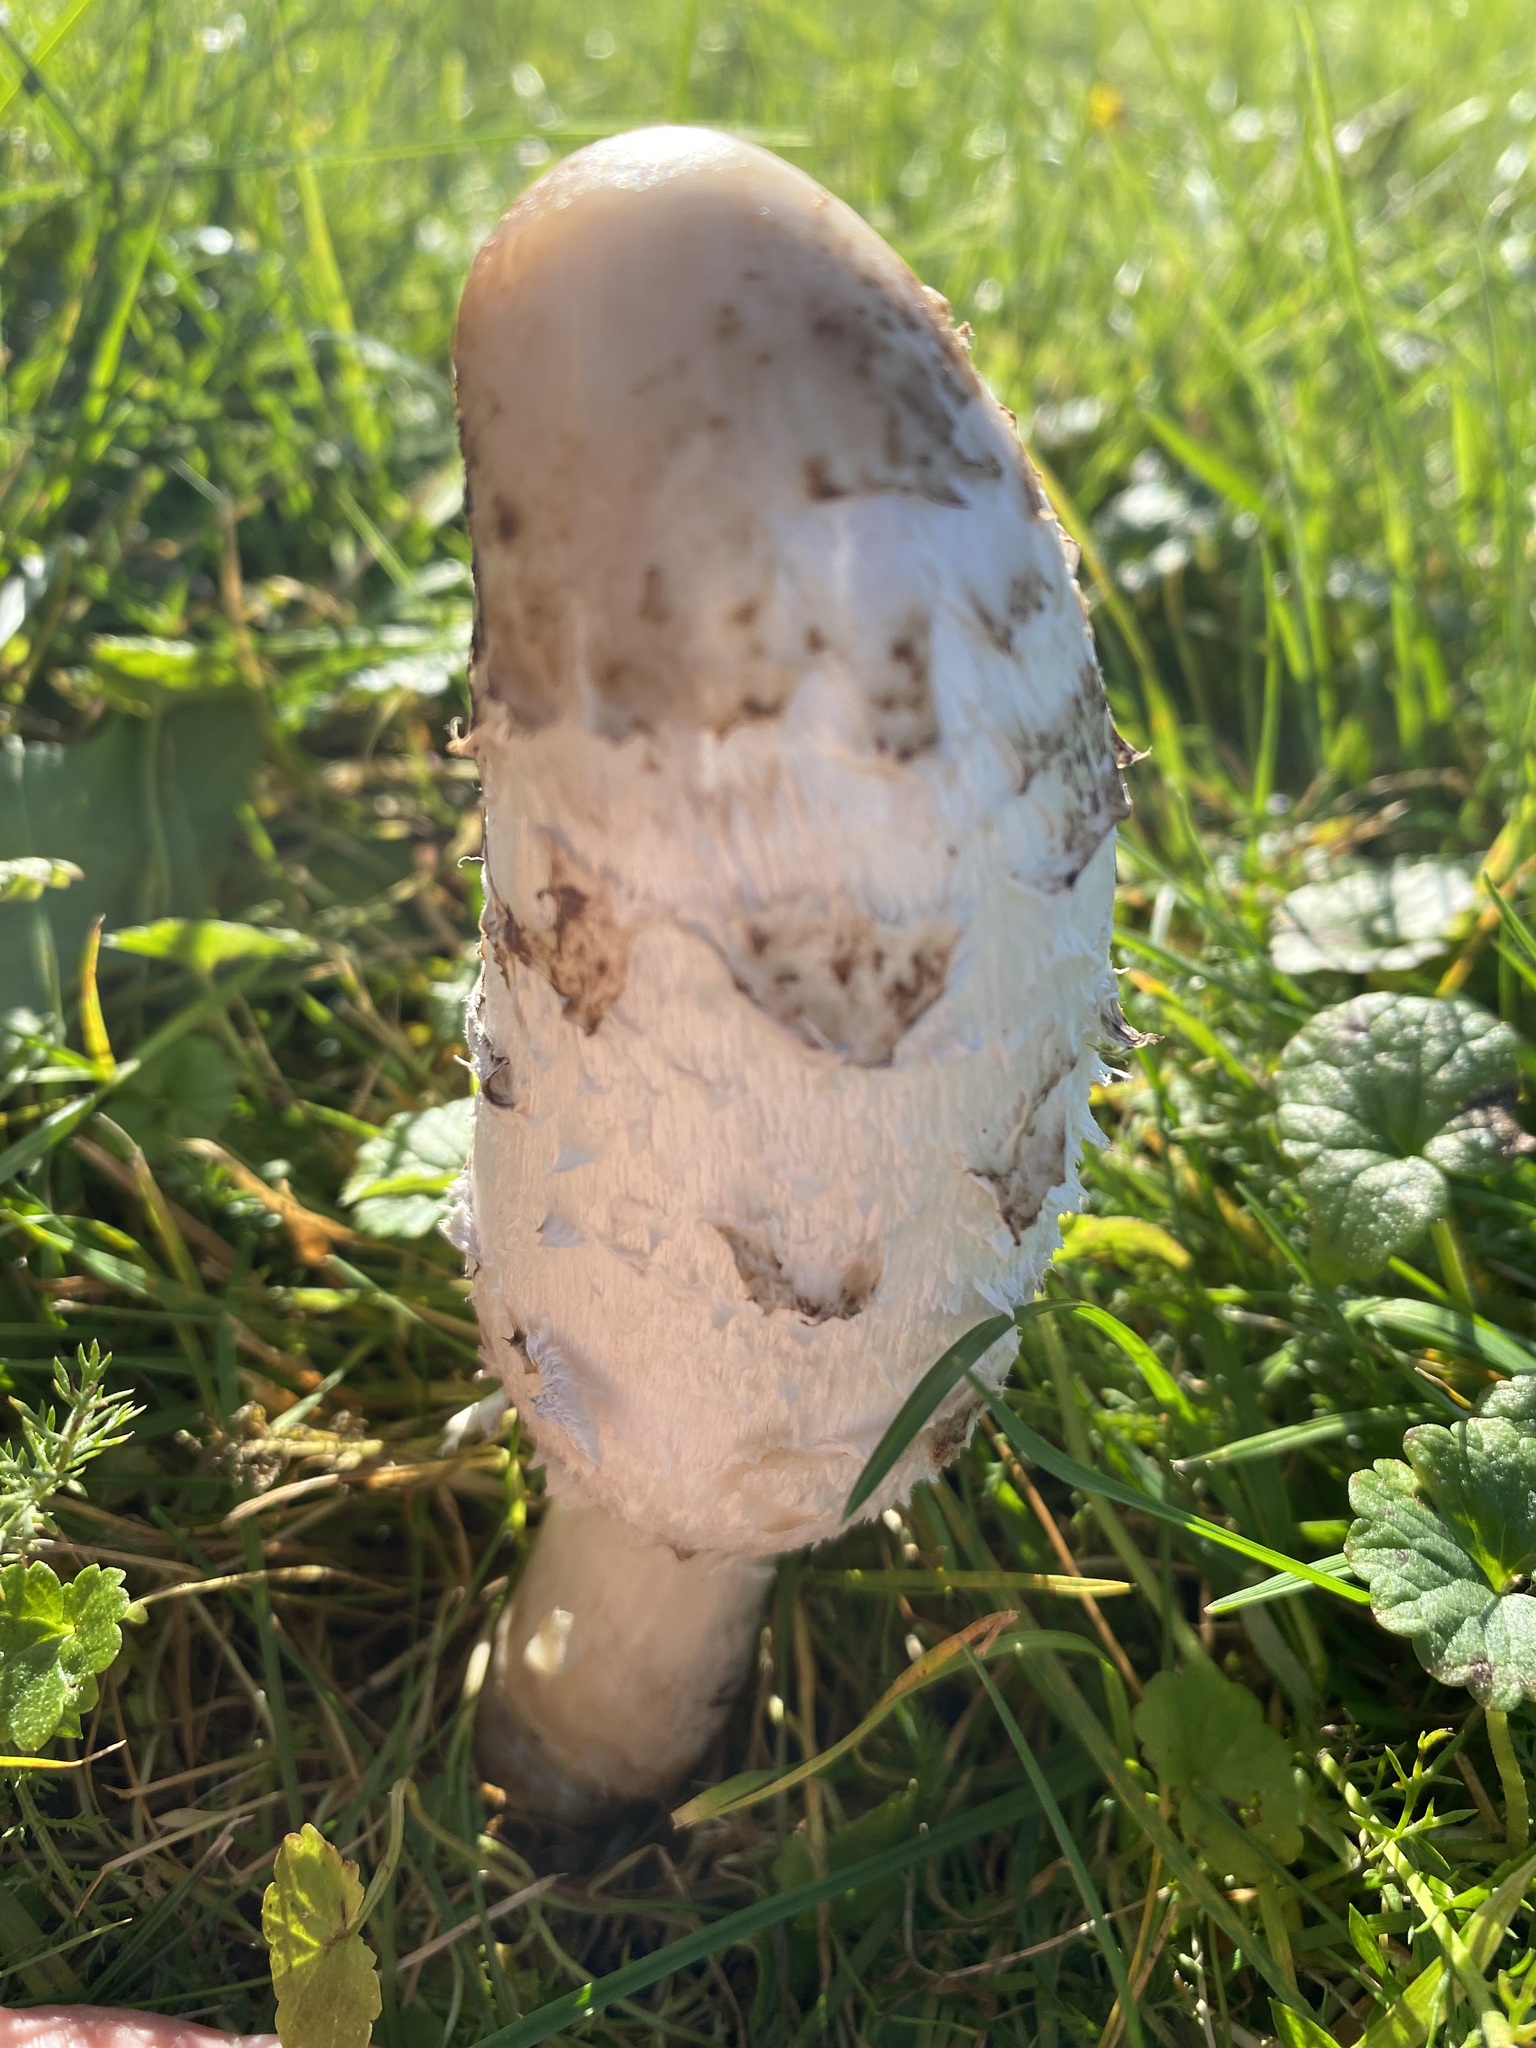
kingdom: Fungi
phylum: Basidiomycota
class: Agaricomycetes
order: Agaricales
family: Agaricaceae
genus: Coprinus
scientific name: Coprinus comatus
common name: Lawyer's wig
